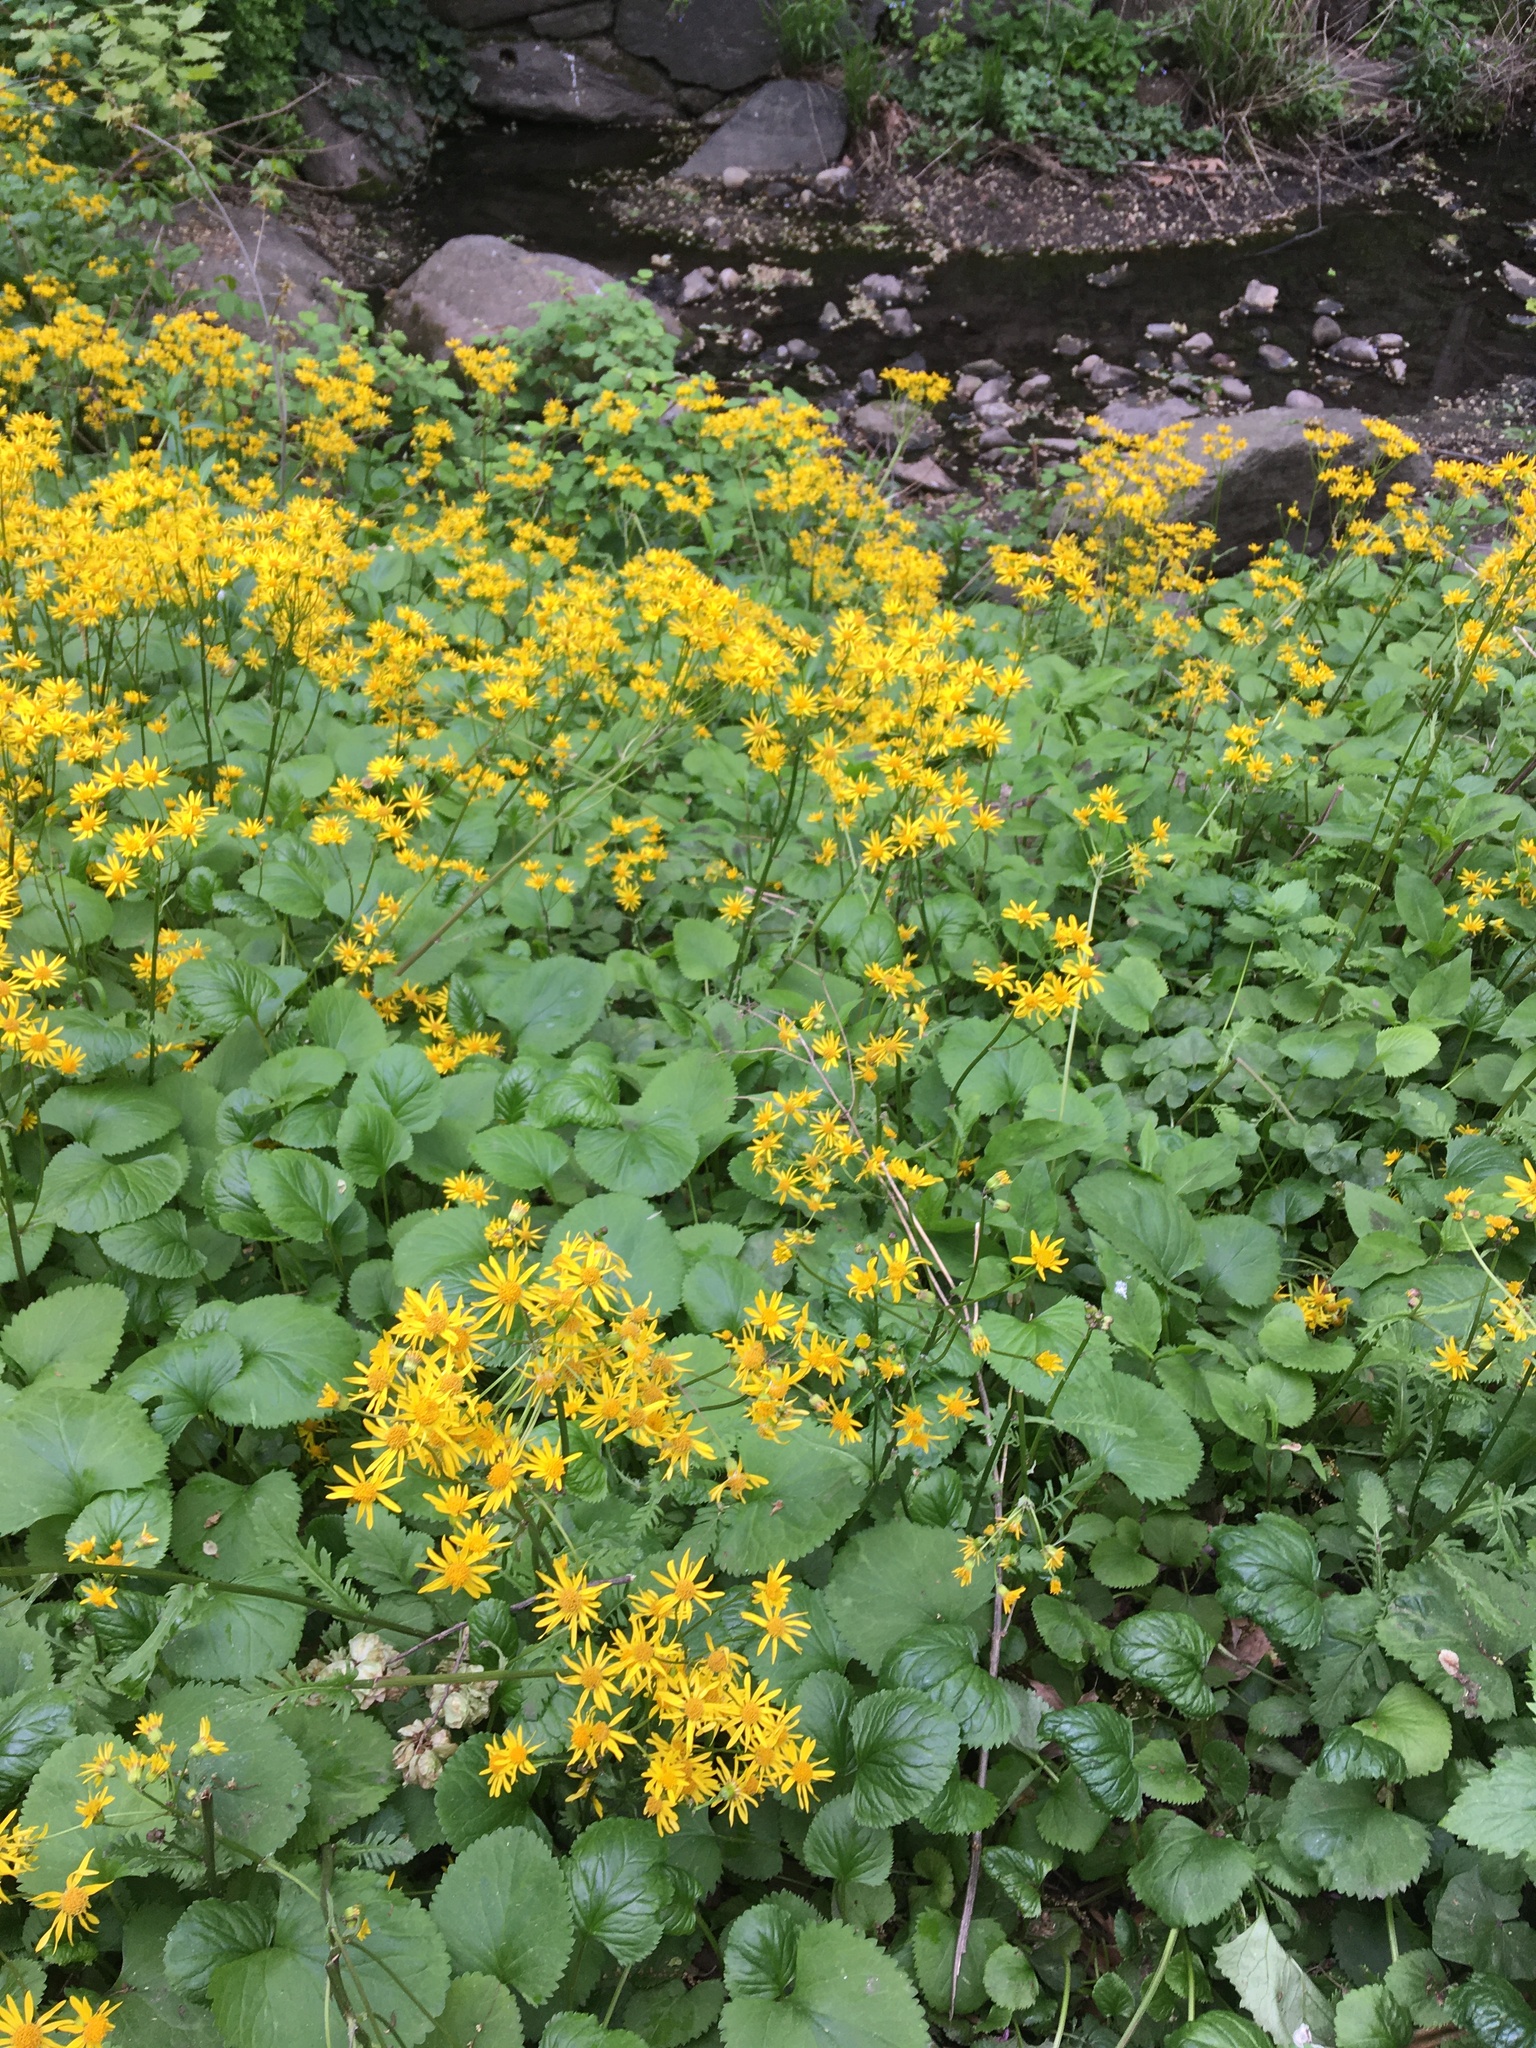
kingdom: Plantae
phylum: Tracheophyta
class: Magnoliopsida
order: Asterales
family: Asteraceae
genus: Packera
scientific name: Packera aurea
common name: Golden groundsel
